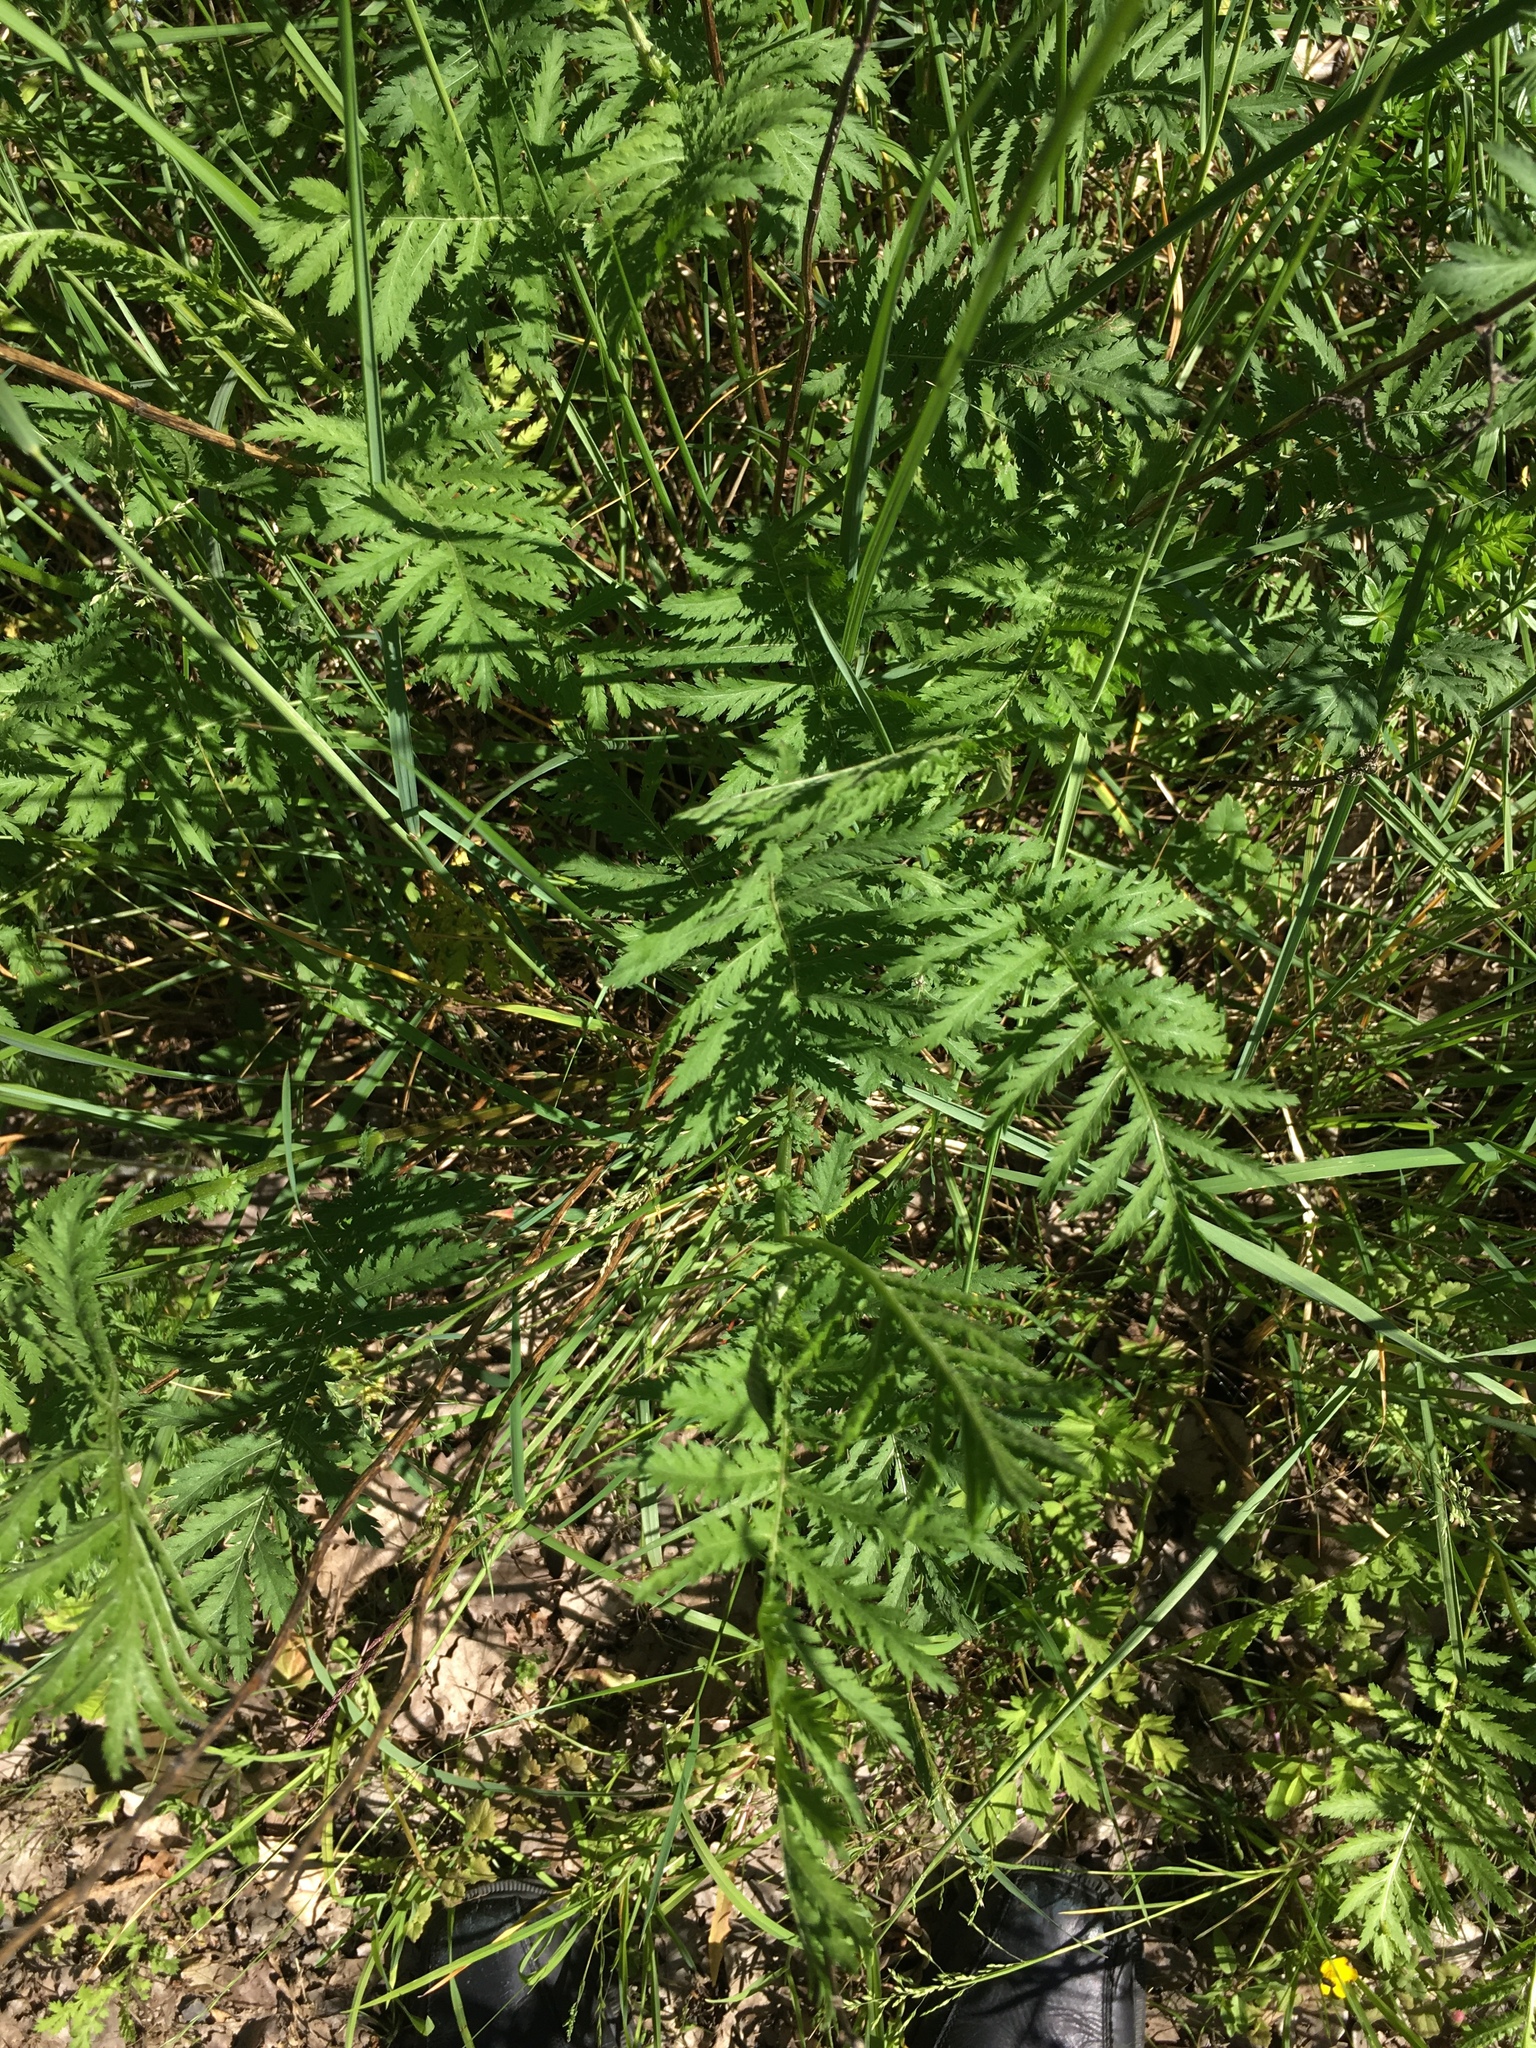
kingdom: Plantae
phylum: Tracheophyta
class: Magnoliopsida
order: Asterales
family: Asteraceae
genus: Tanacetum
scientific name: Tanacetum vulgare
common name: Common tansy
